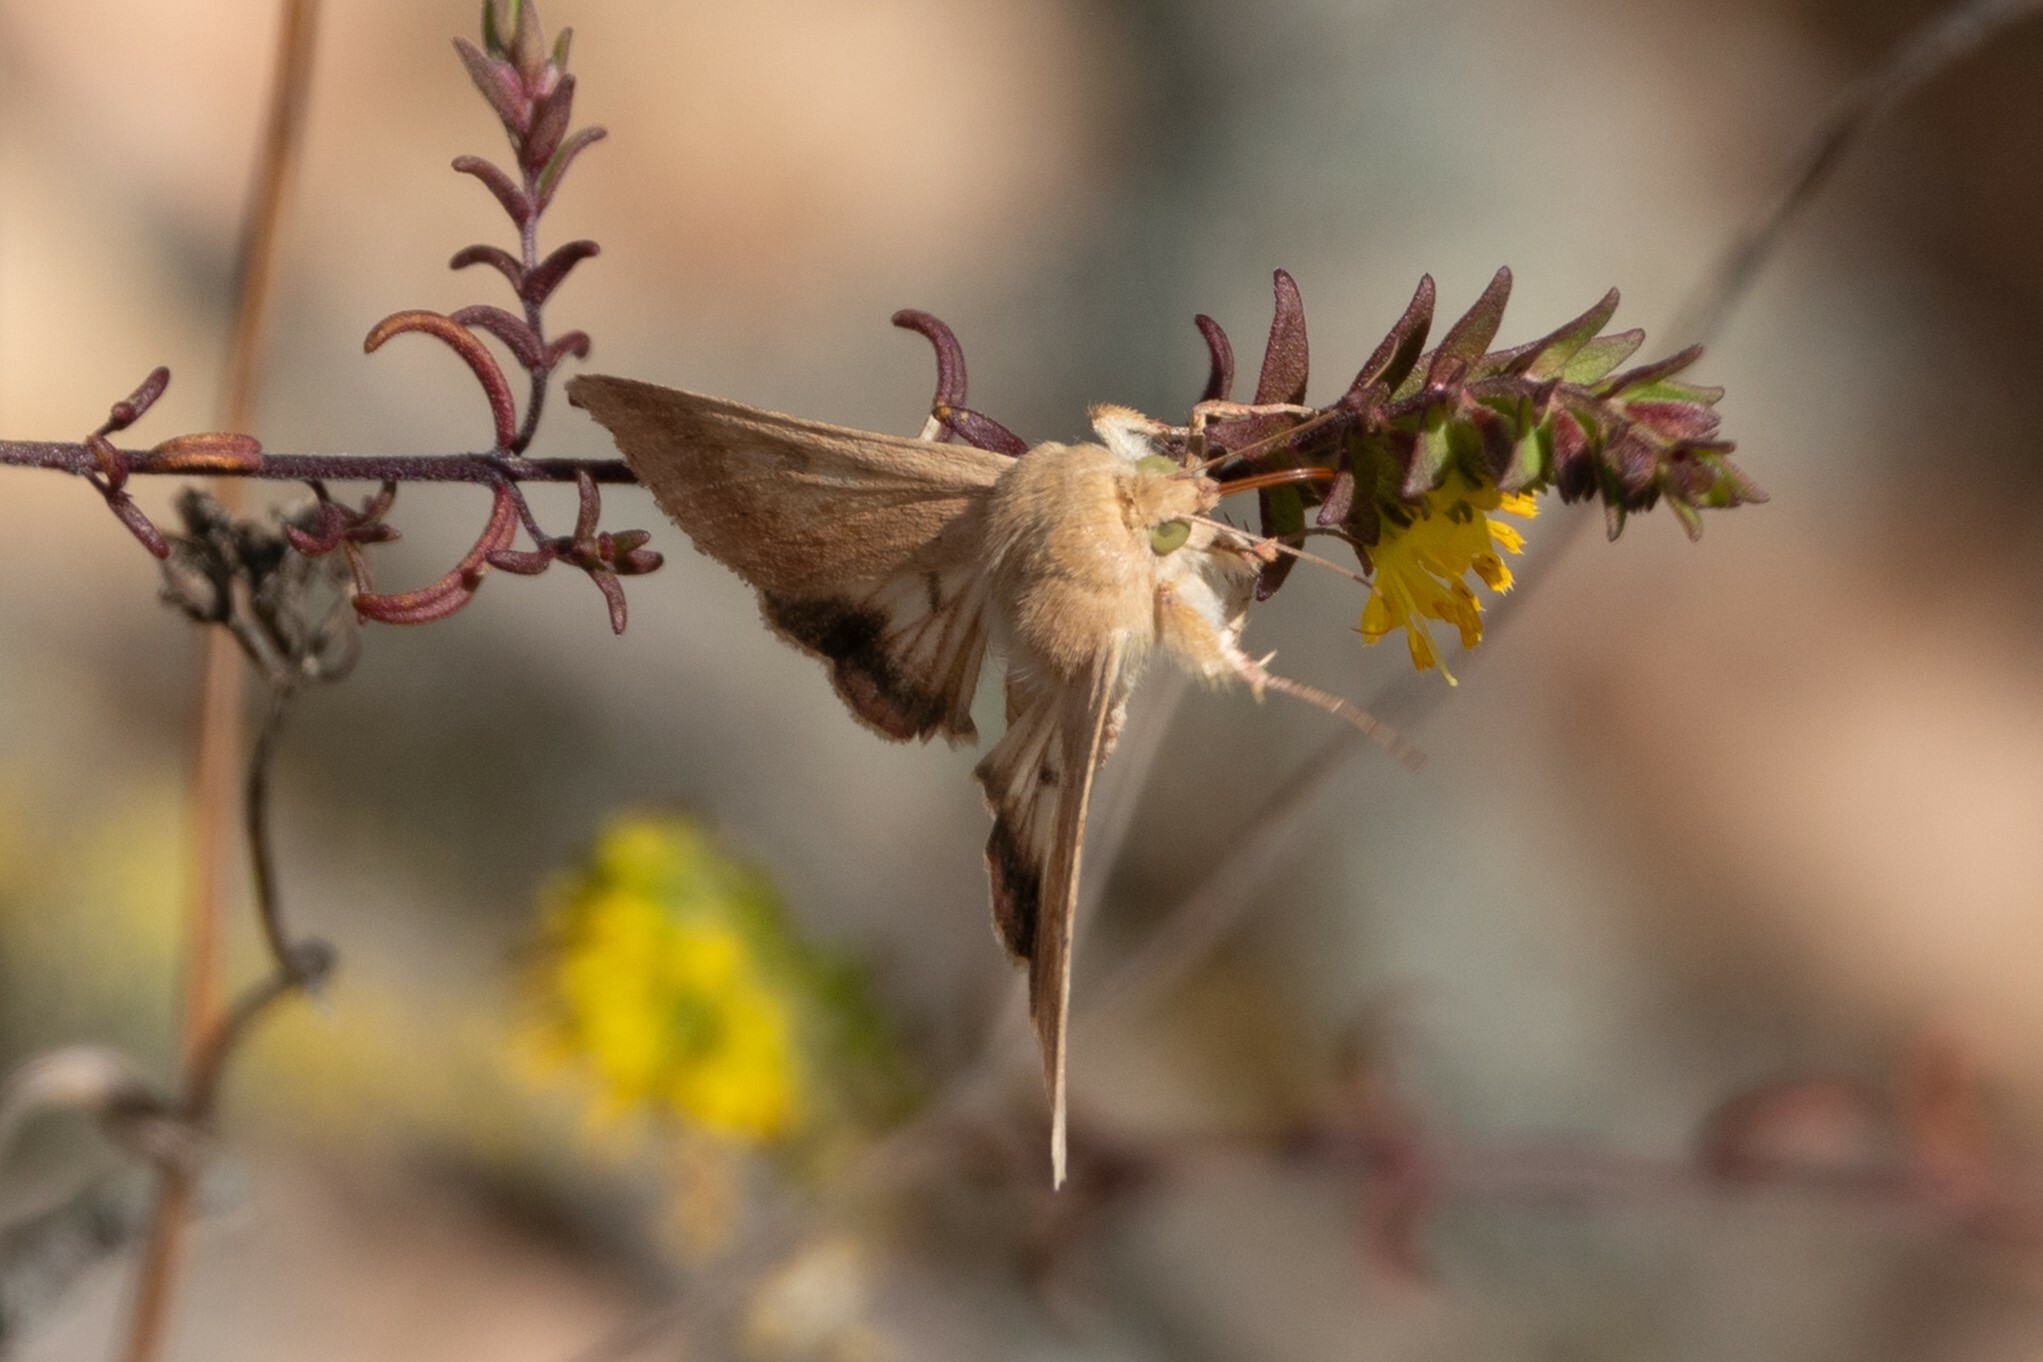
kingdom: Animalia
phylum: Arthropoda
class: Insecta
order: Lepidoptera
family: Noctuidae
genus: Helicoverpa
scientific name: Helicoverpa armigera
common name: Cotton bollworm
